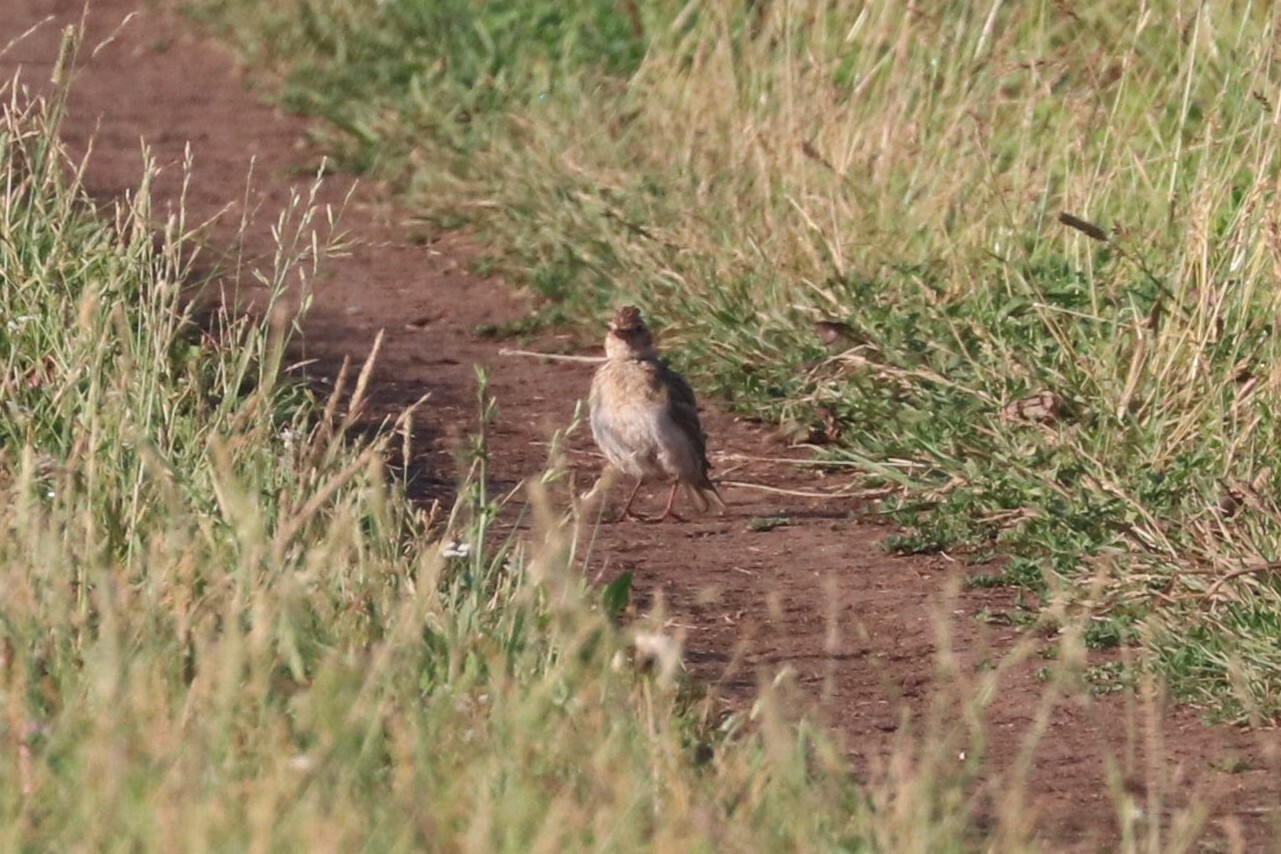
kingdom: Animalia
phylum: Chordata
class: Aves
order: Passeriformes
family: Alaudidae
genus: Alauda
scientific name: Alauda arvensis
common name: Eurasian skylark
